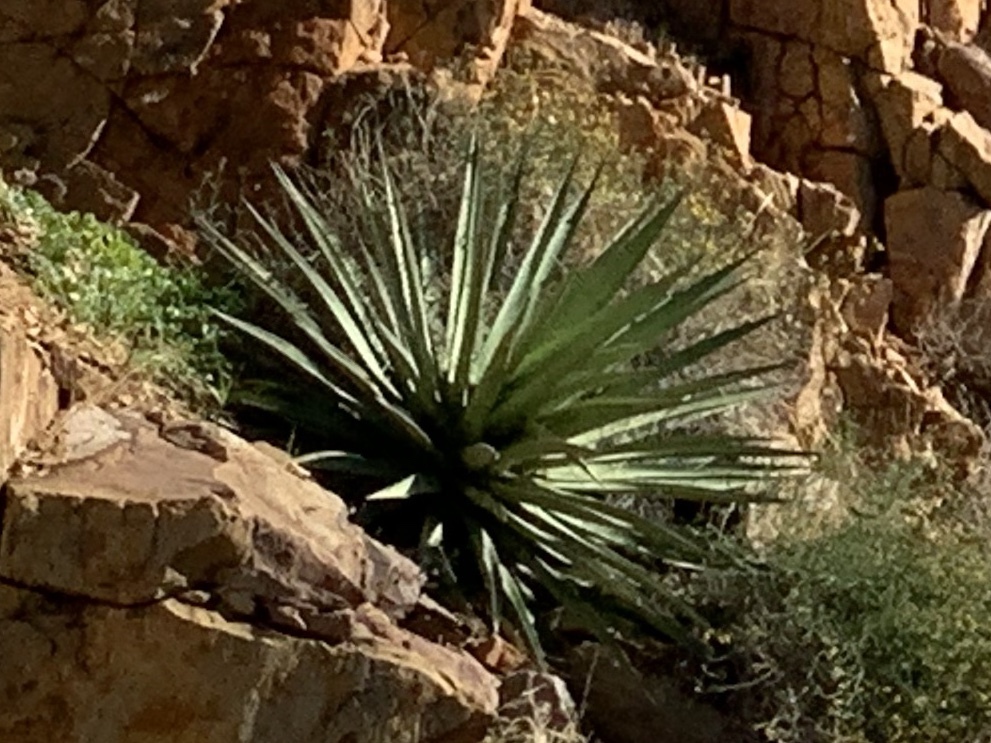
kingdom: Plantae
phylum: Tracheophyta
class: Liliopsida
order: Asparagales
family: Asparagaceae
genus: Agave
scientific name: Agave palmeri
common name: Palmer agave
